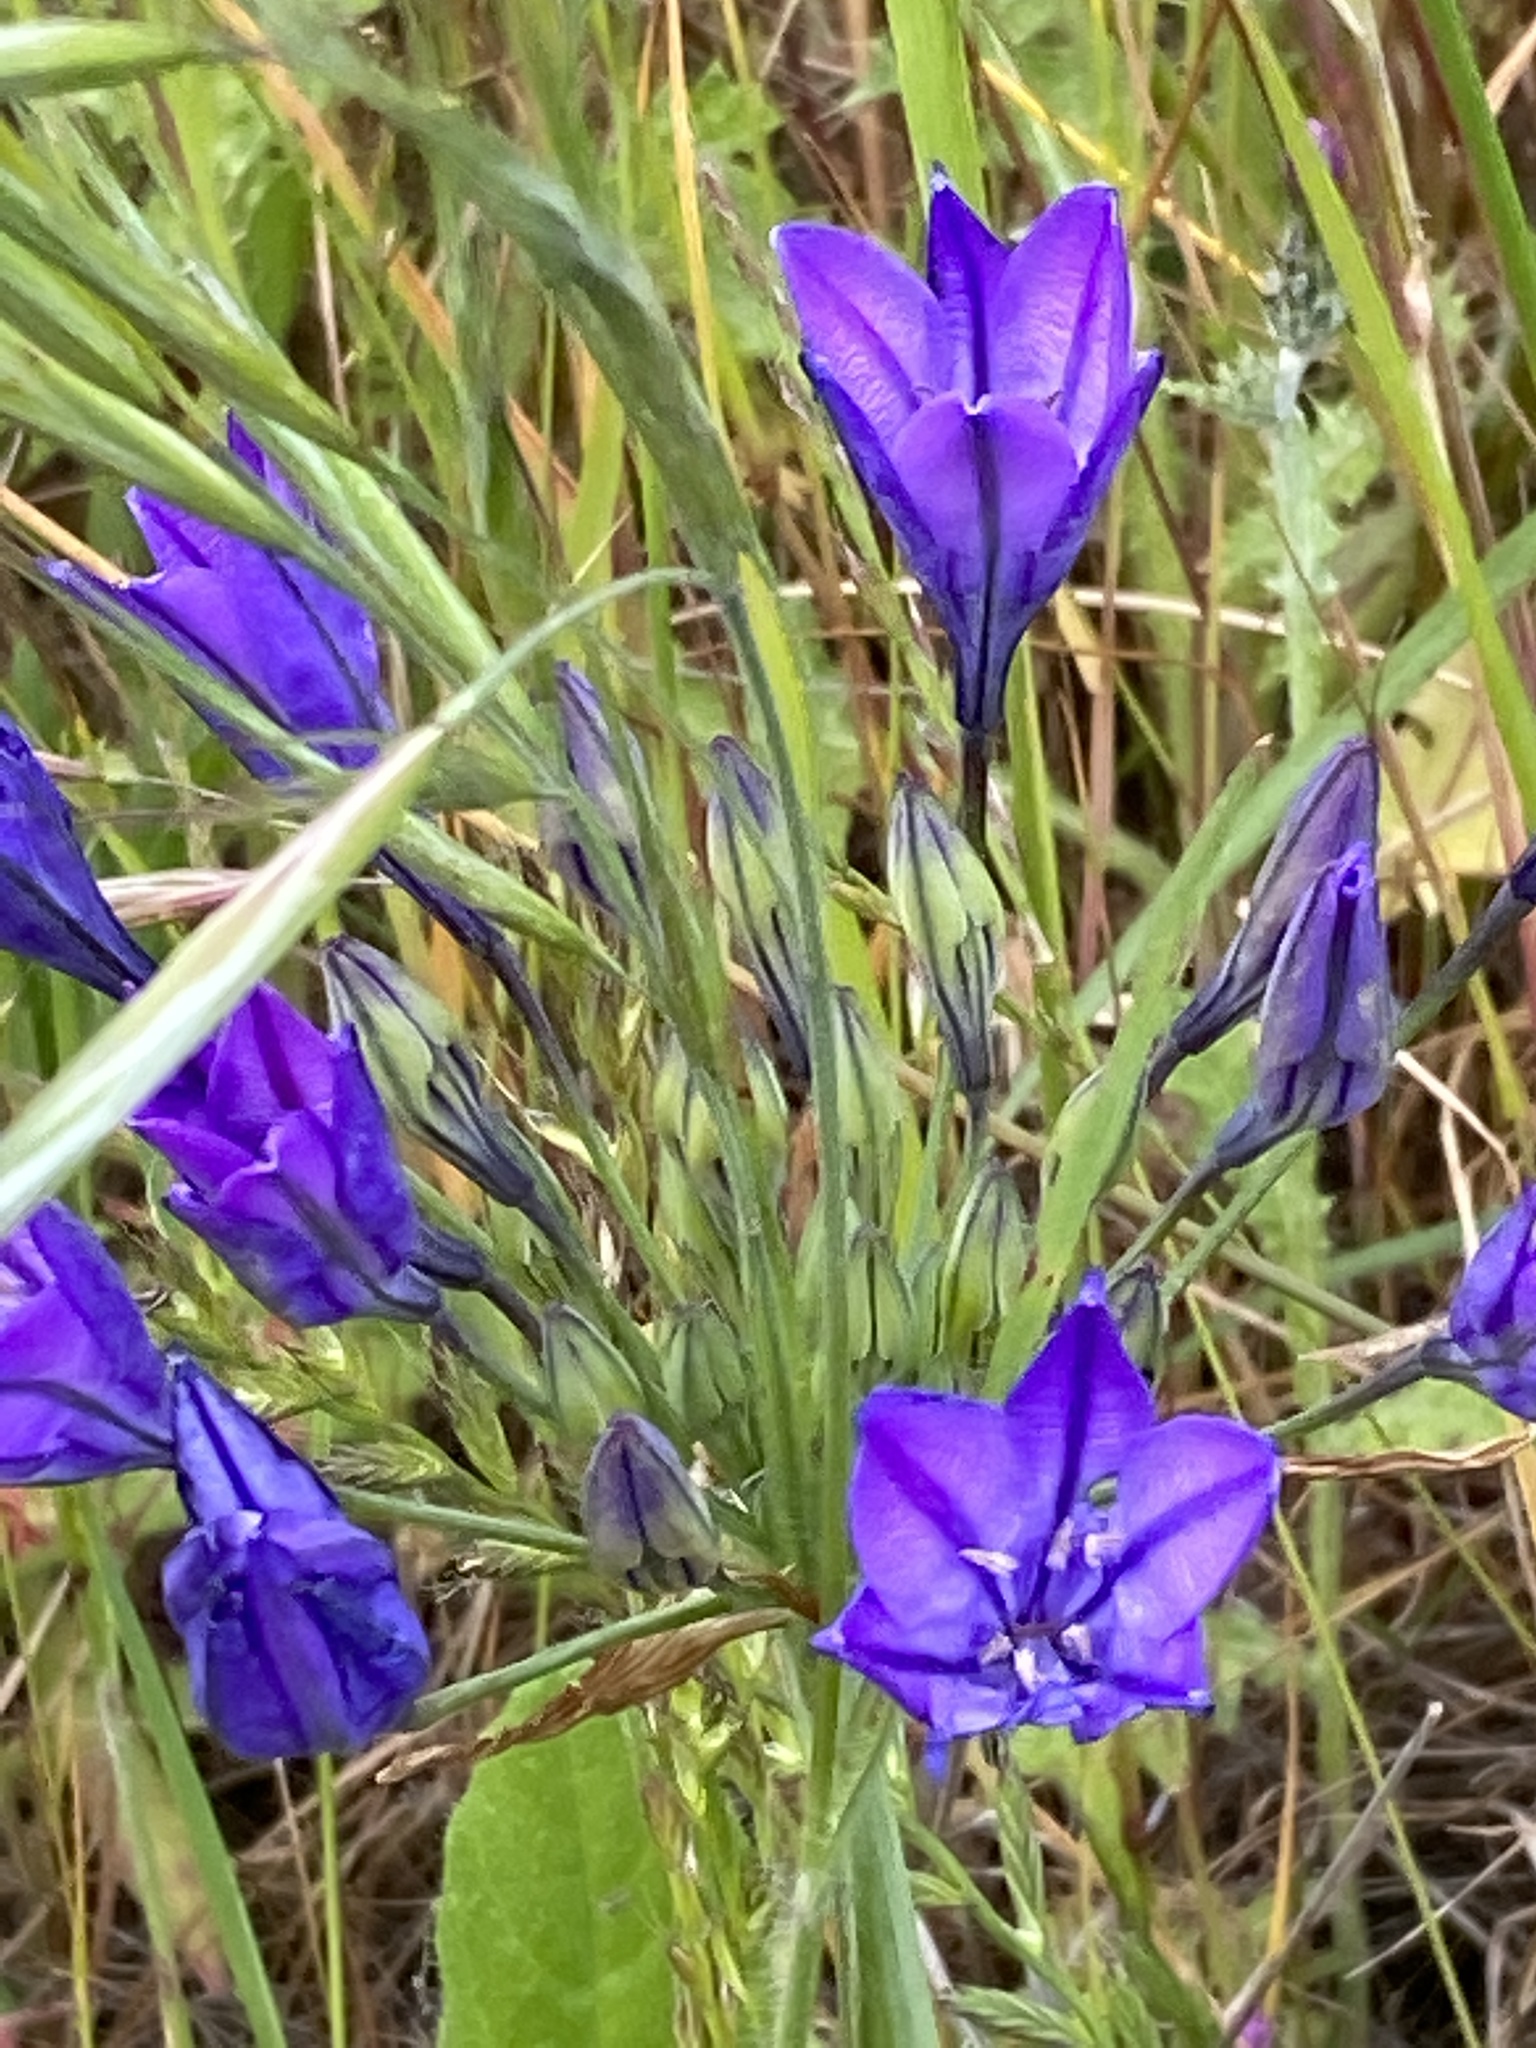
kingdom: Plantae
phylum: Tracheophyta
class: Liliopsida
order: Asparagales
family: Asparagaceae
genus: Triteleia
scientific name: Triteleia laxa
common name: Triplet-lily
